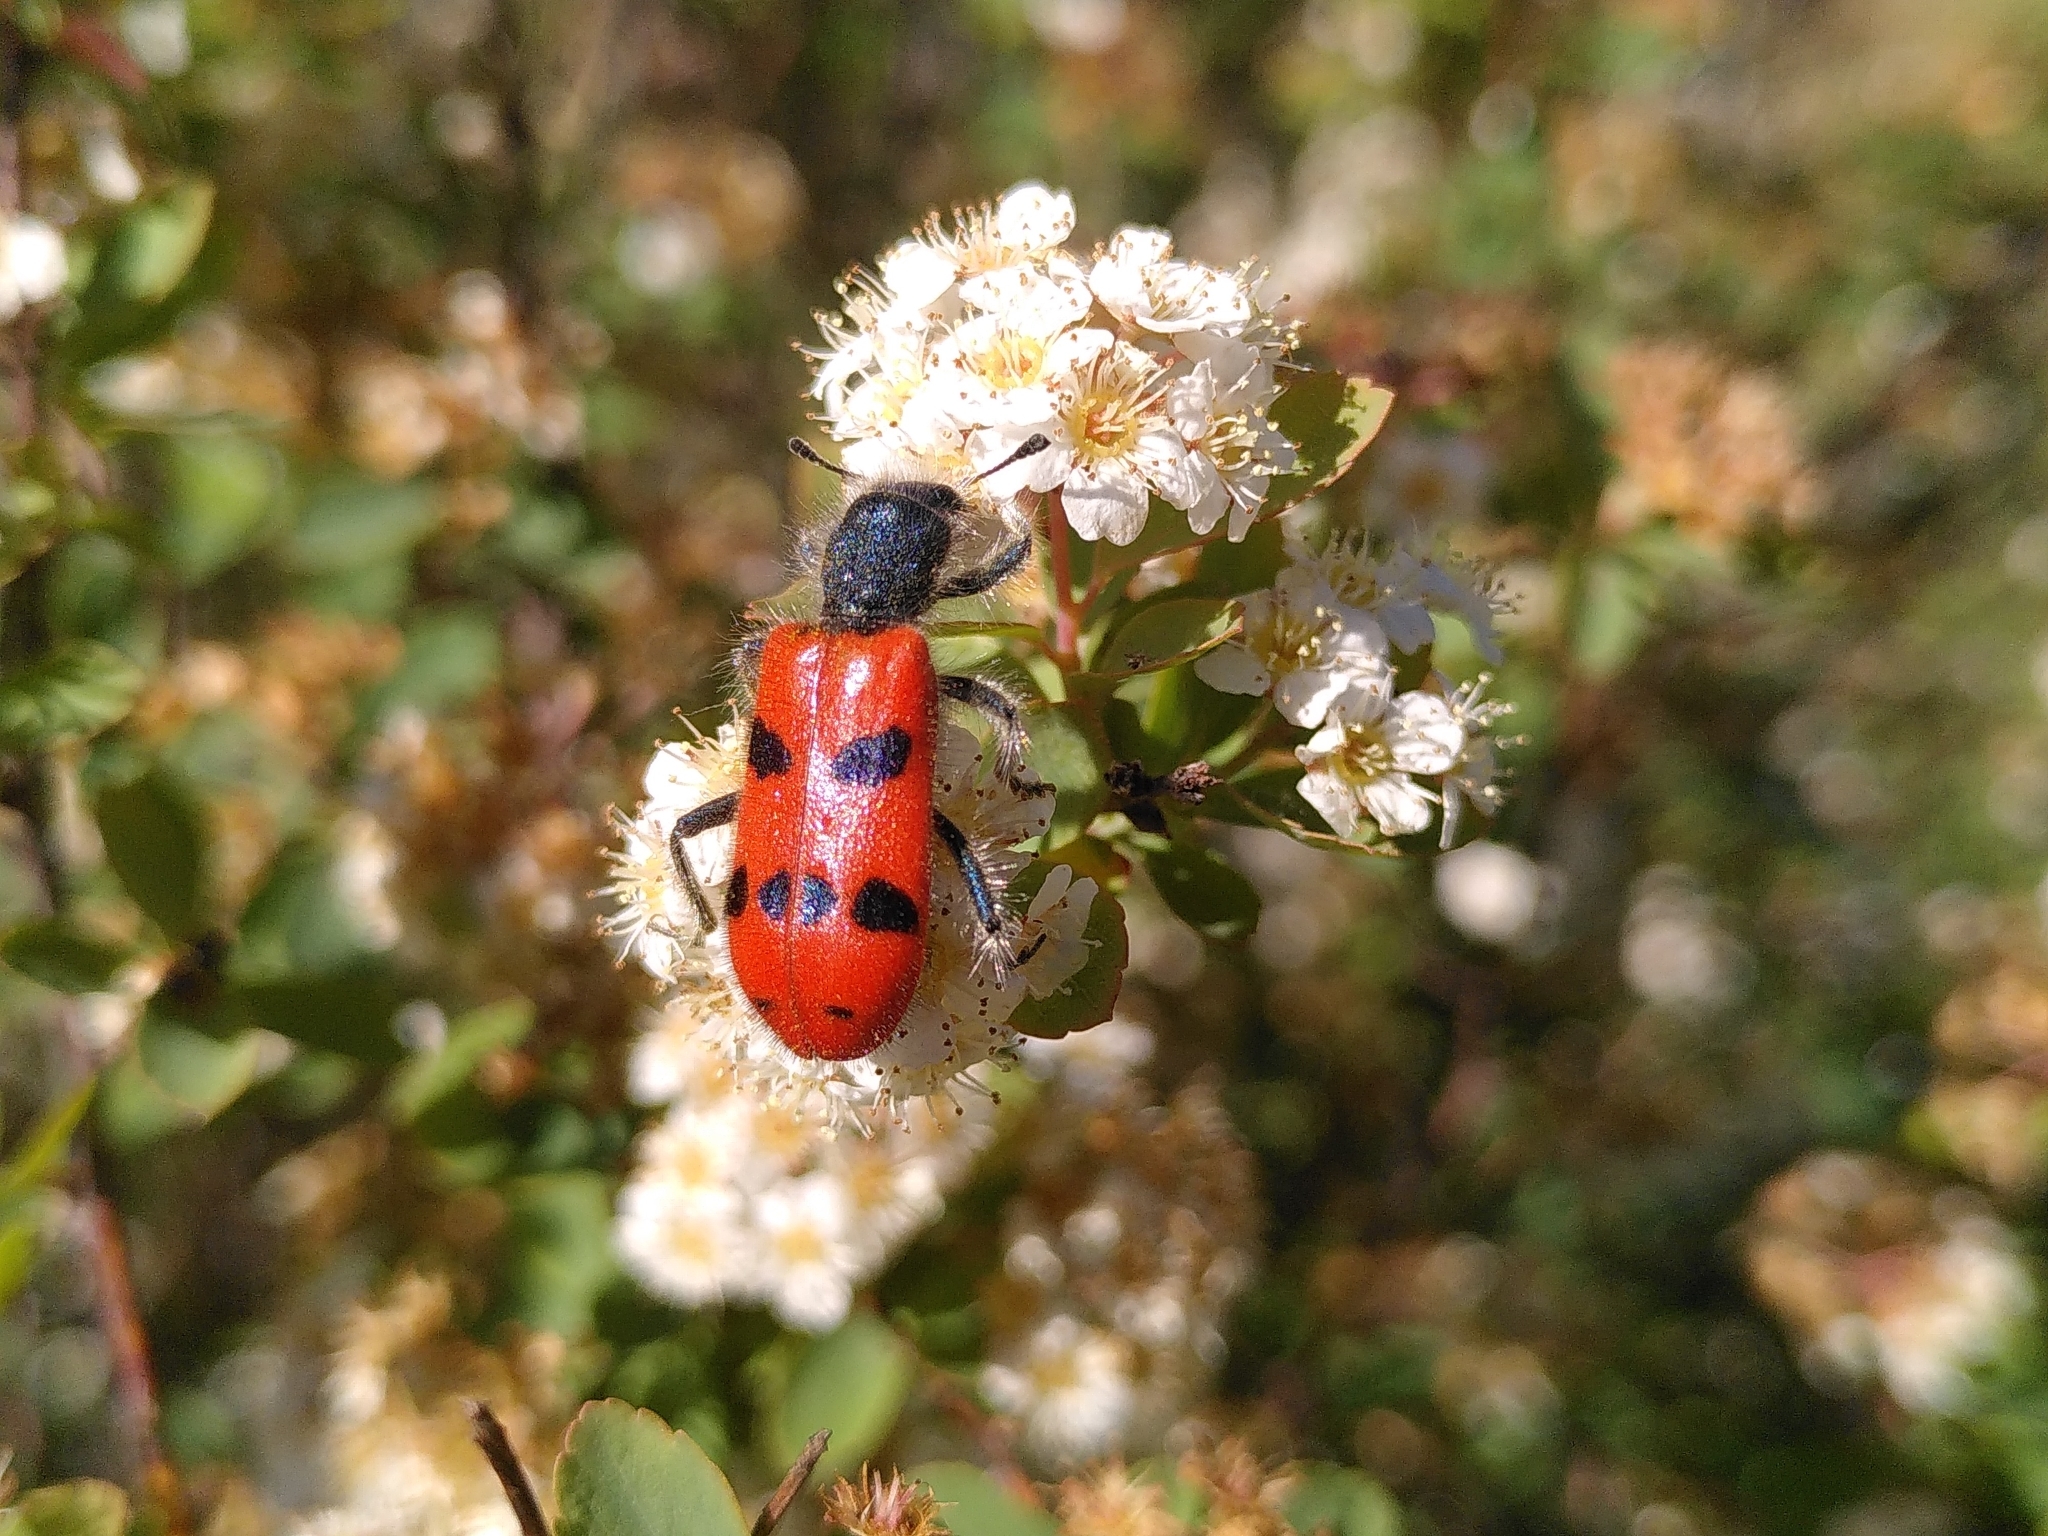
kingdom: Animalia
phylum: Arthropoda
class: Insecta
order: Coleoptera
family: Cleridae
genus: Trichodes
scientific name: Trichodes octopunctatus
